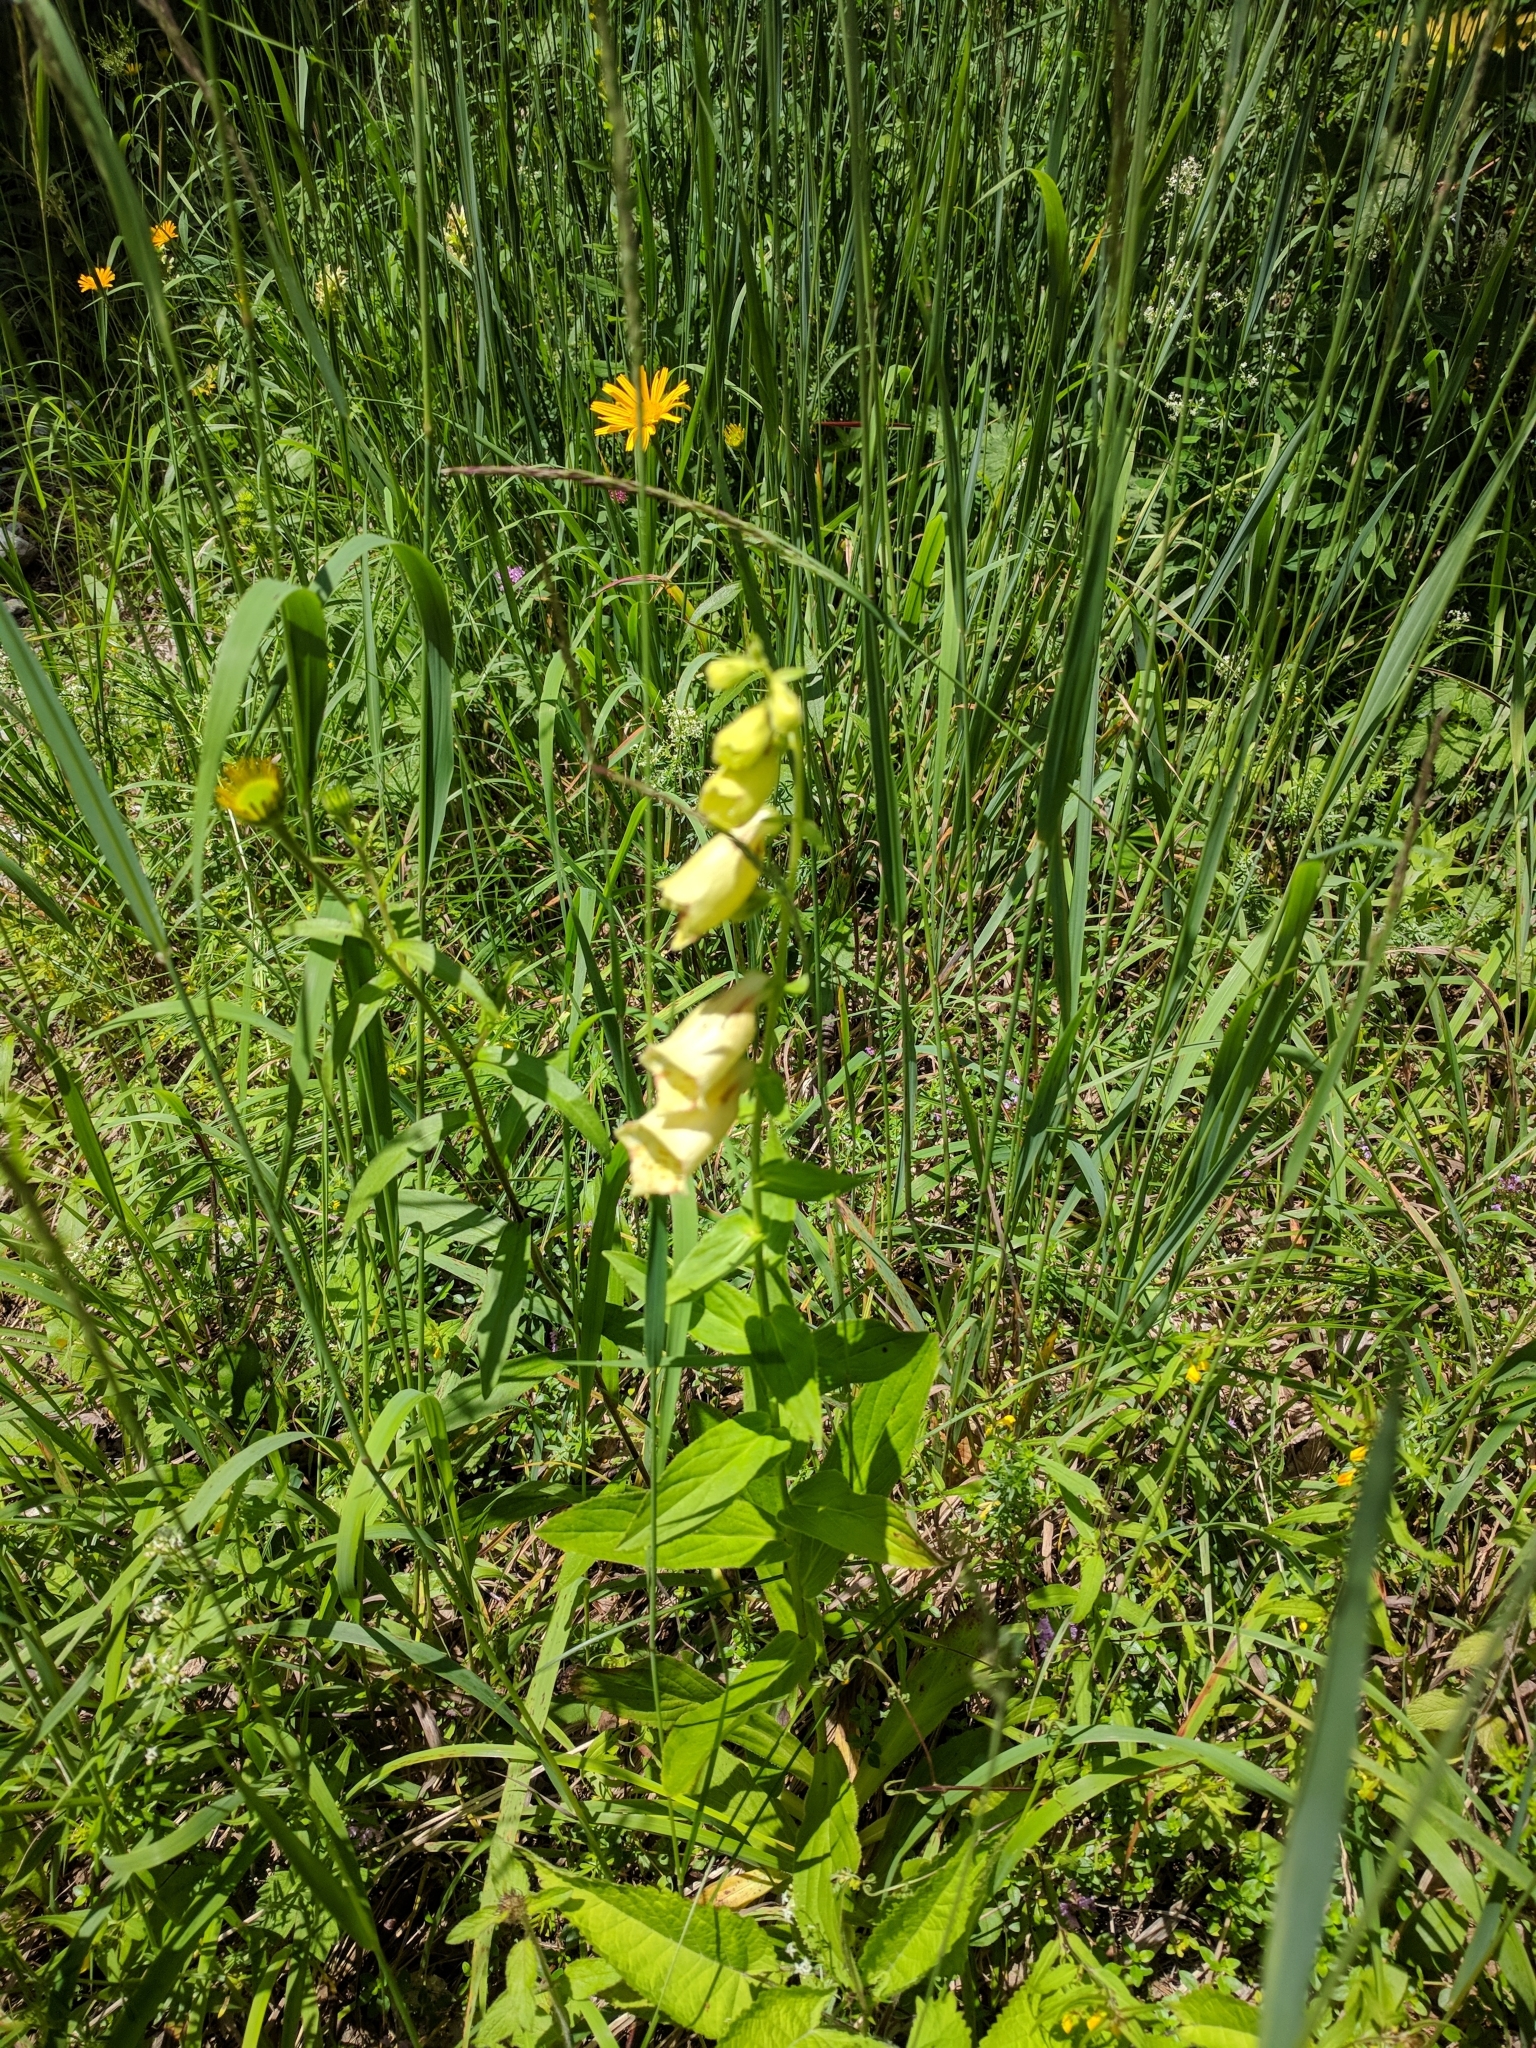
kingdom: Plantae
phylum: Tracheophyta
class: Magnoliopsida
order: Lamiales
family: Plantaginaceae
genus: Digitalis
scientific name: Digitalis grandiflora
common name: Yellow foxglove
